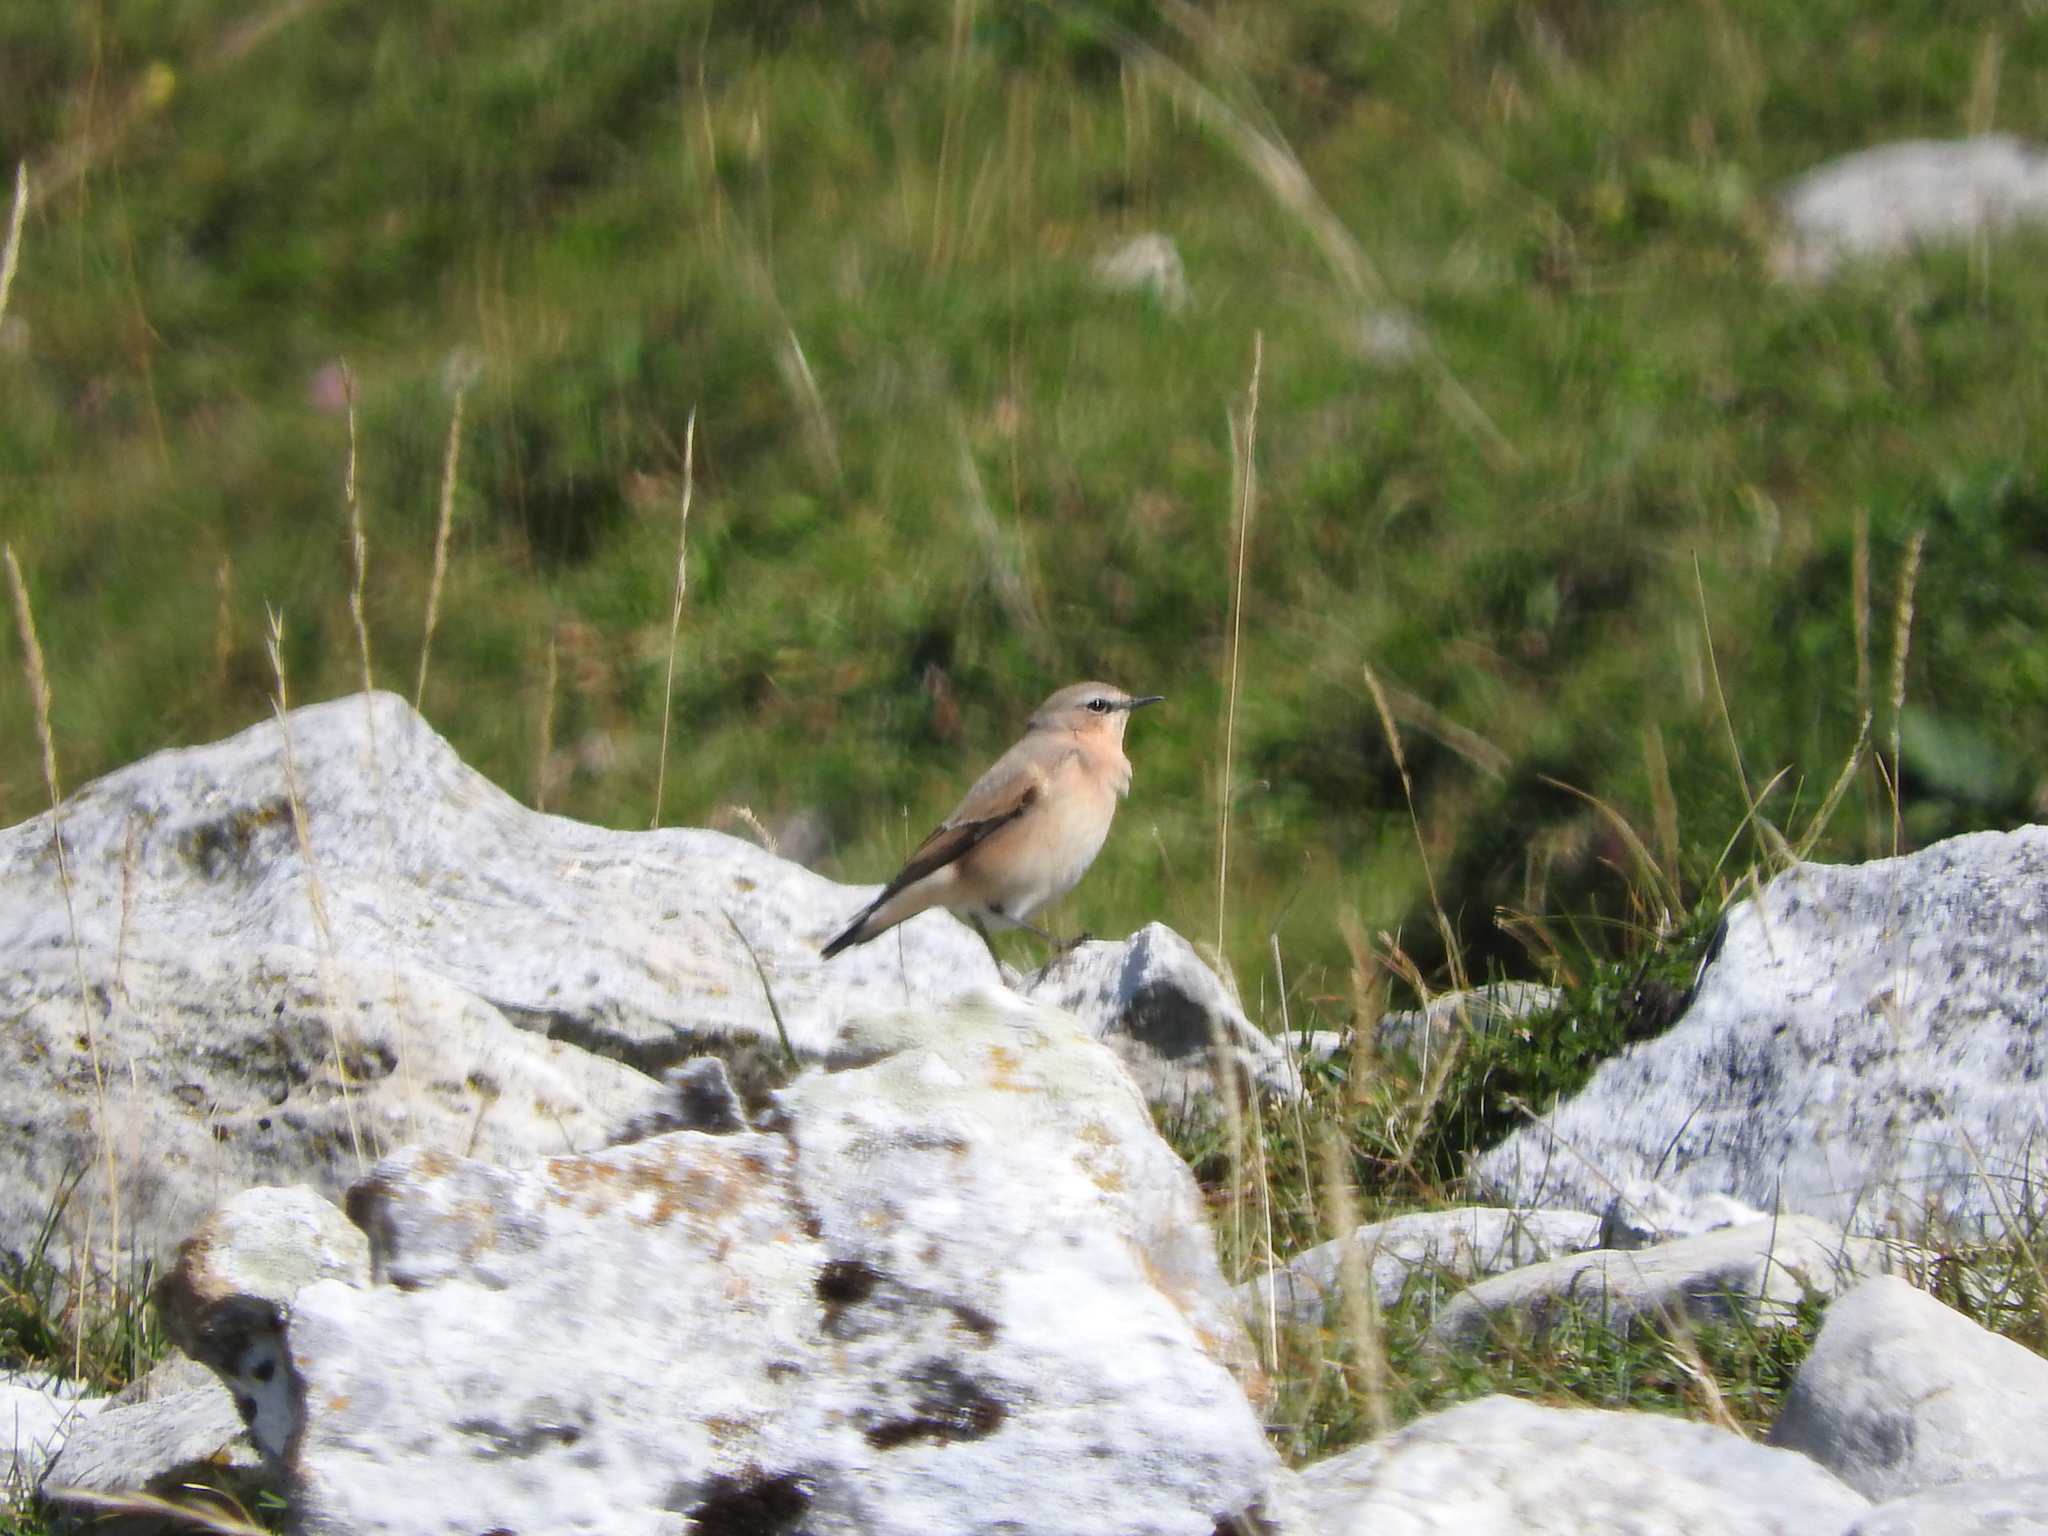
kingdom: Animalia
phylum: Chordata
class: Aves
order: Passeriformes
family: Muscicapidae
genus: Oenanthe
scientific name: Oenanthe oenanthe
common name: Northern wheatear
